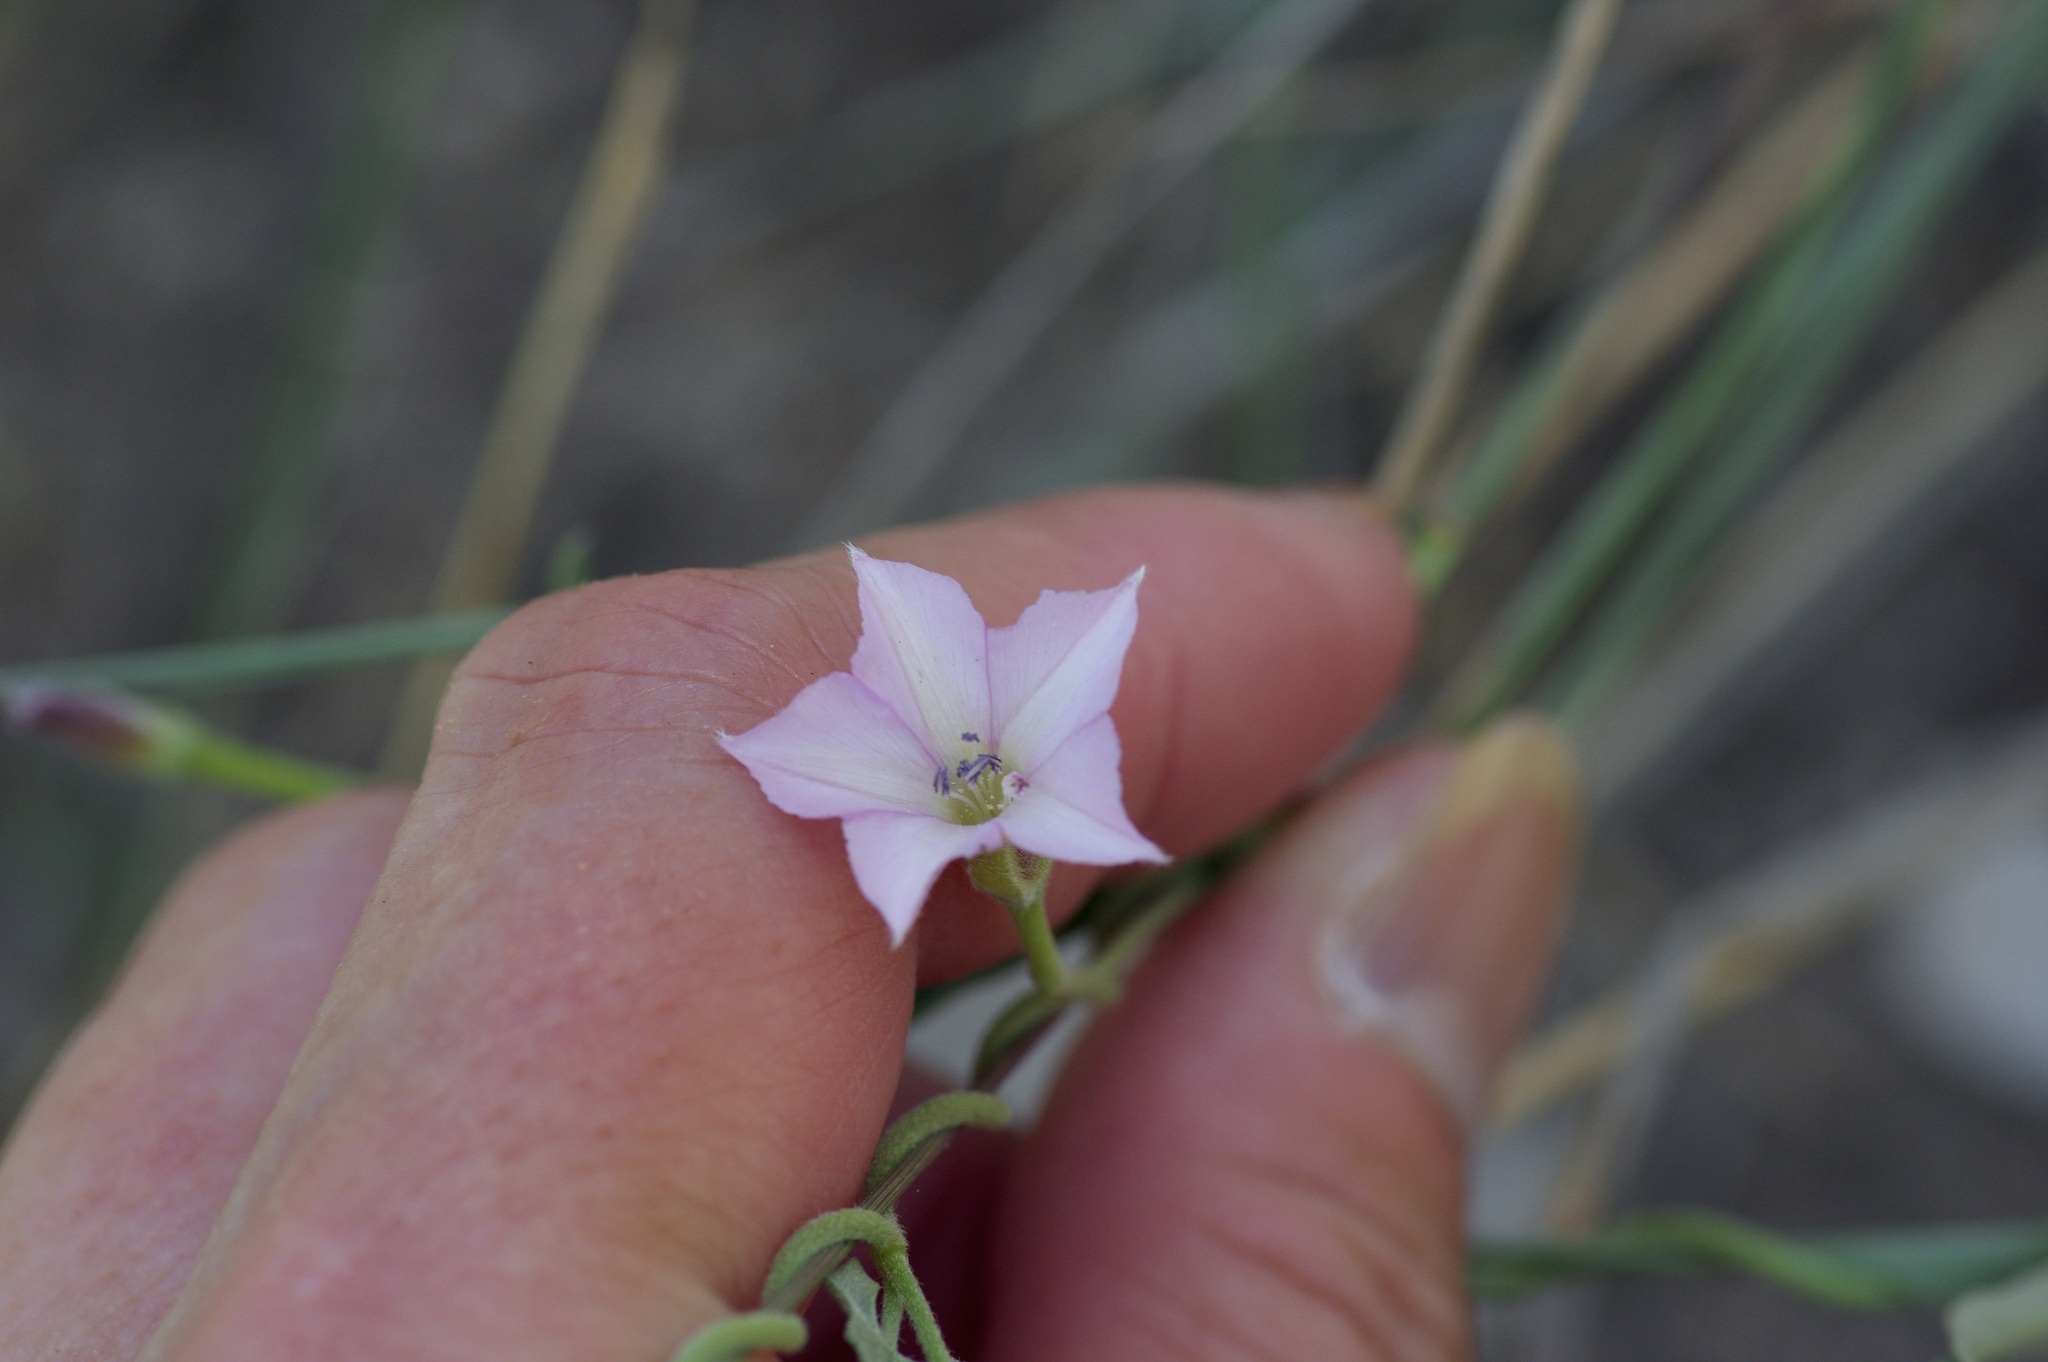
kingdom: Plantae
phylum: Tracheophyta
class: Magnoliopsida
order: Solanales
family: Convolvulaceae
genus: Convolvulus
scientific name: Convolvulus equitans
